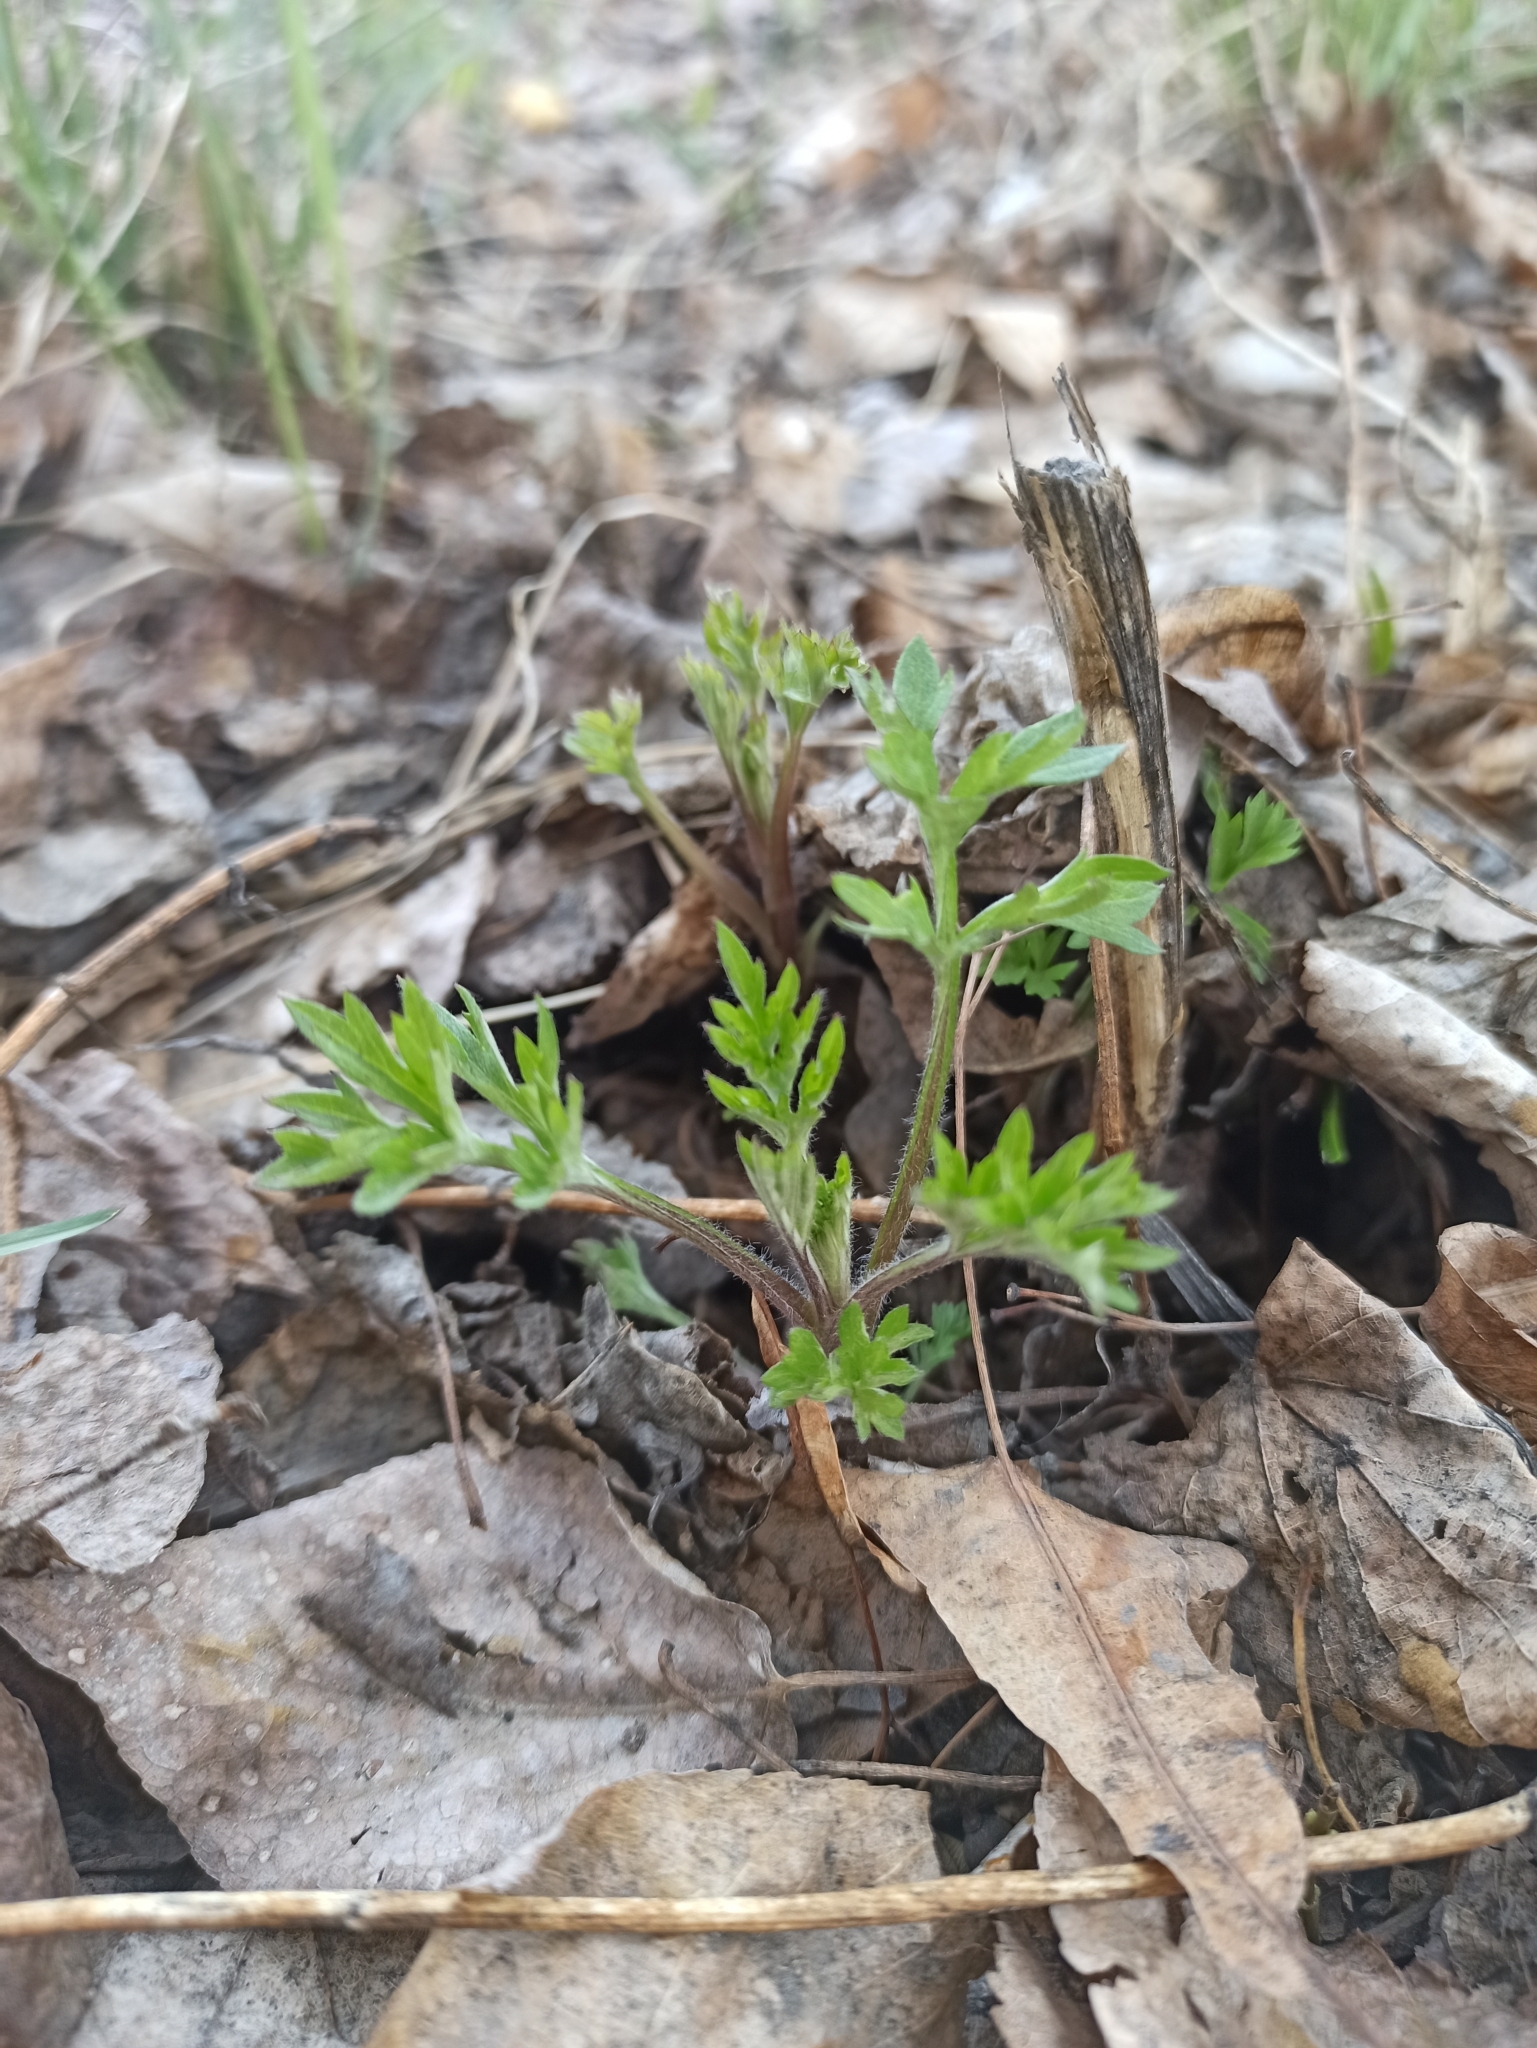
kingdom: Plantae
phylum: Tracheophyta
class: Magnoliopsida
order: Asterales
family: Asteraceae
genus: Artemisia
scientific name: Artemisia vulgaris
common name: Mugwort
